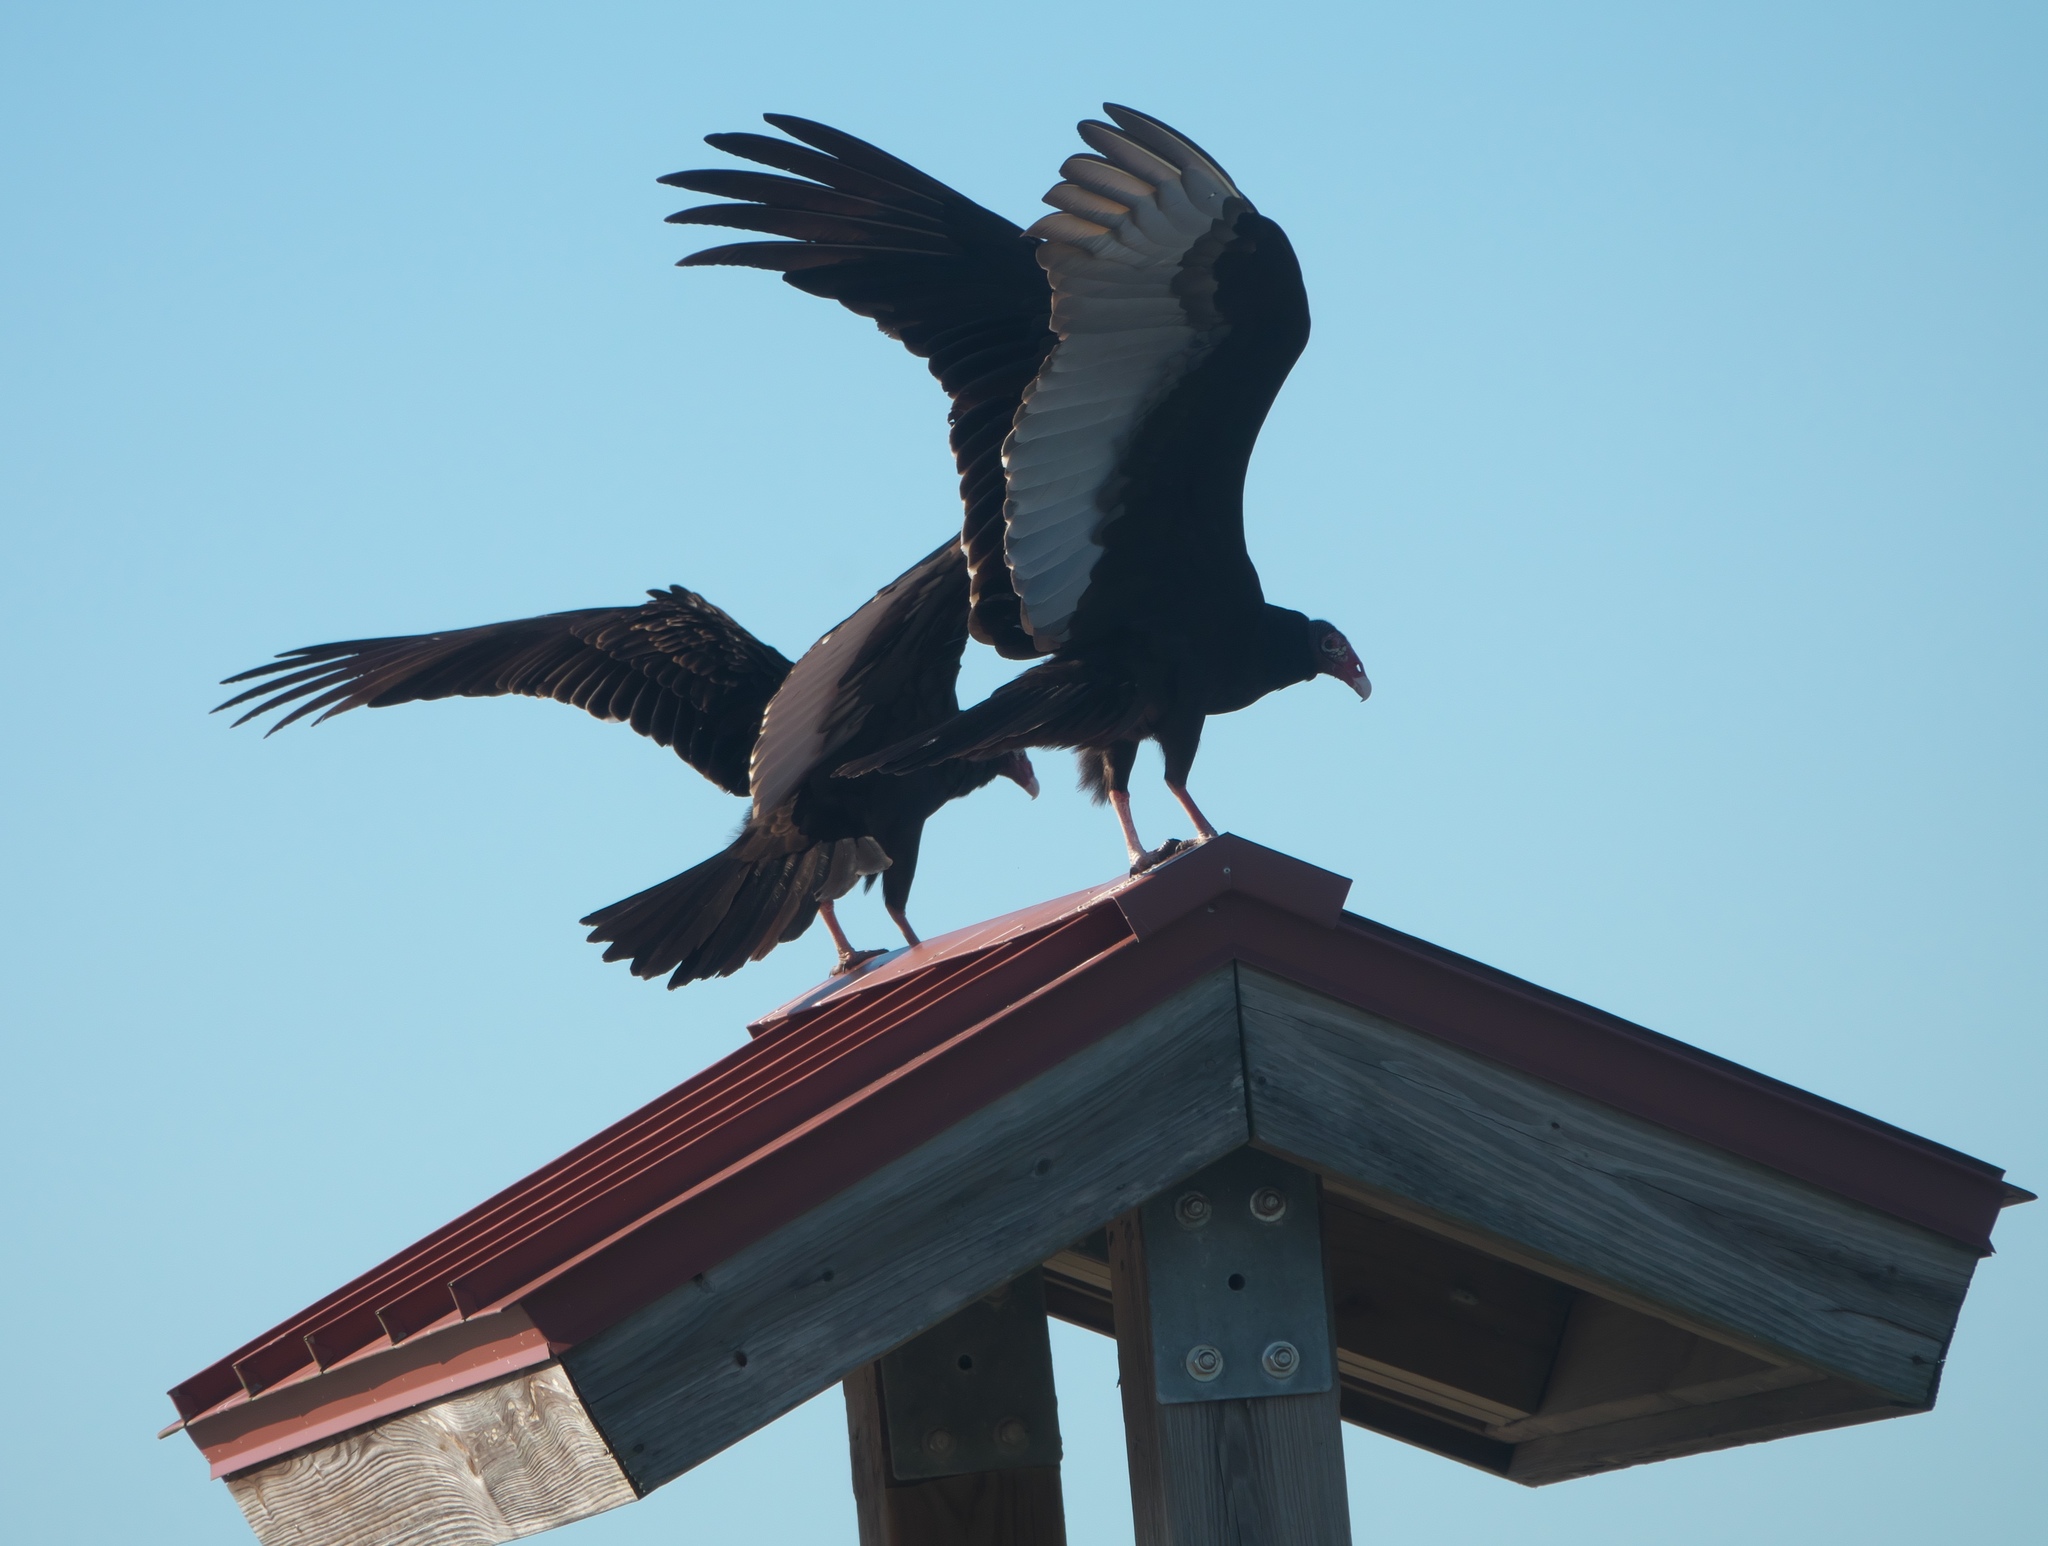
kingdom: Animalia
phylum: Chordata
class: Aves
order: Accipitriformes
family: Cathartidae
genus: Cathartes
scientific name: Cathartes aura
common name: Turkey vulture
